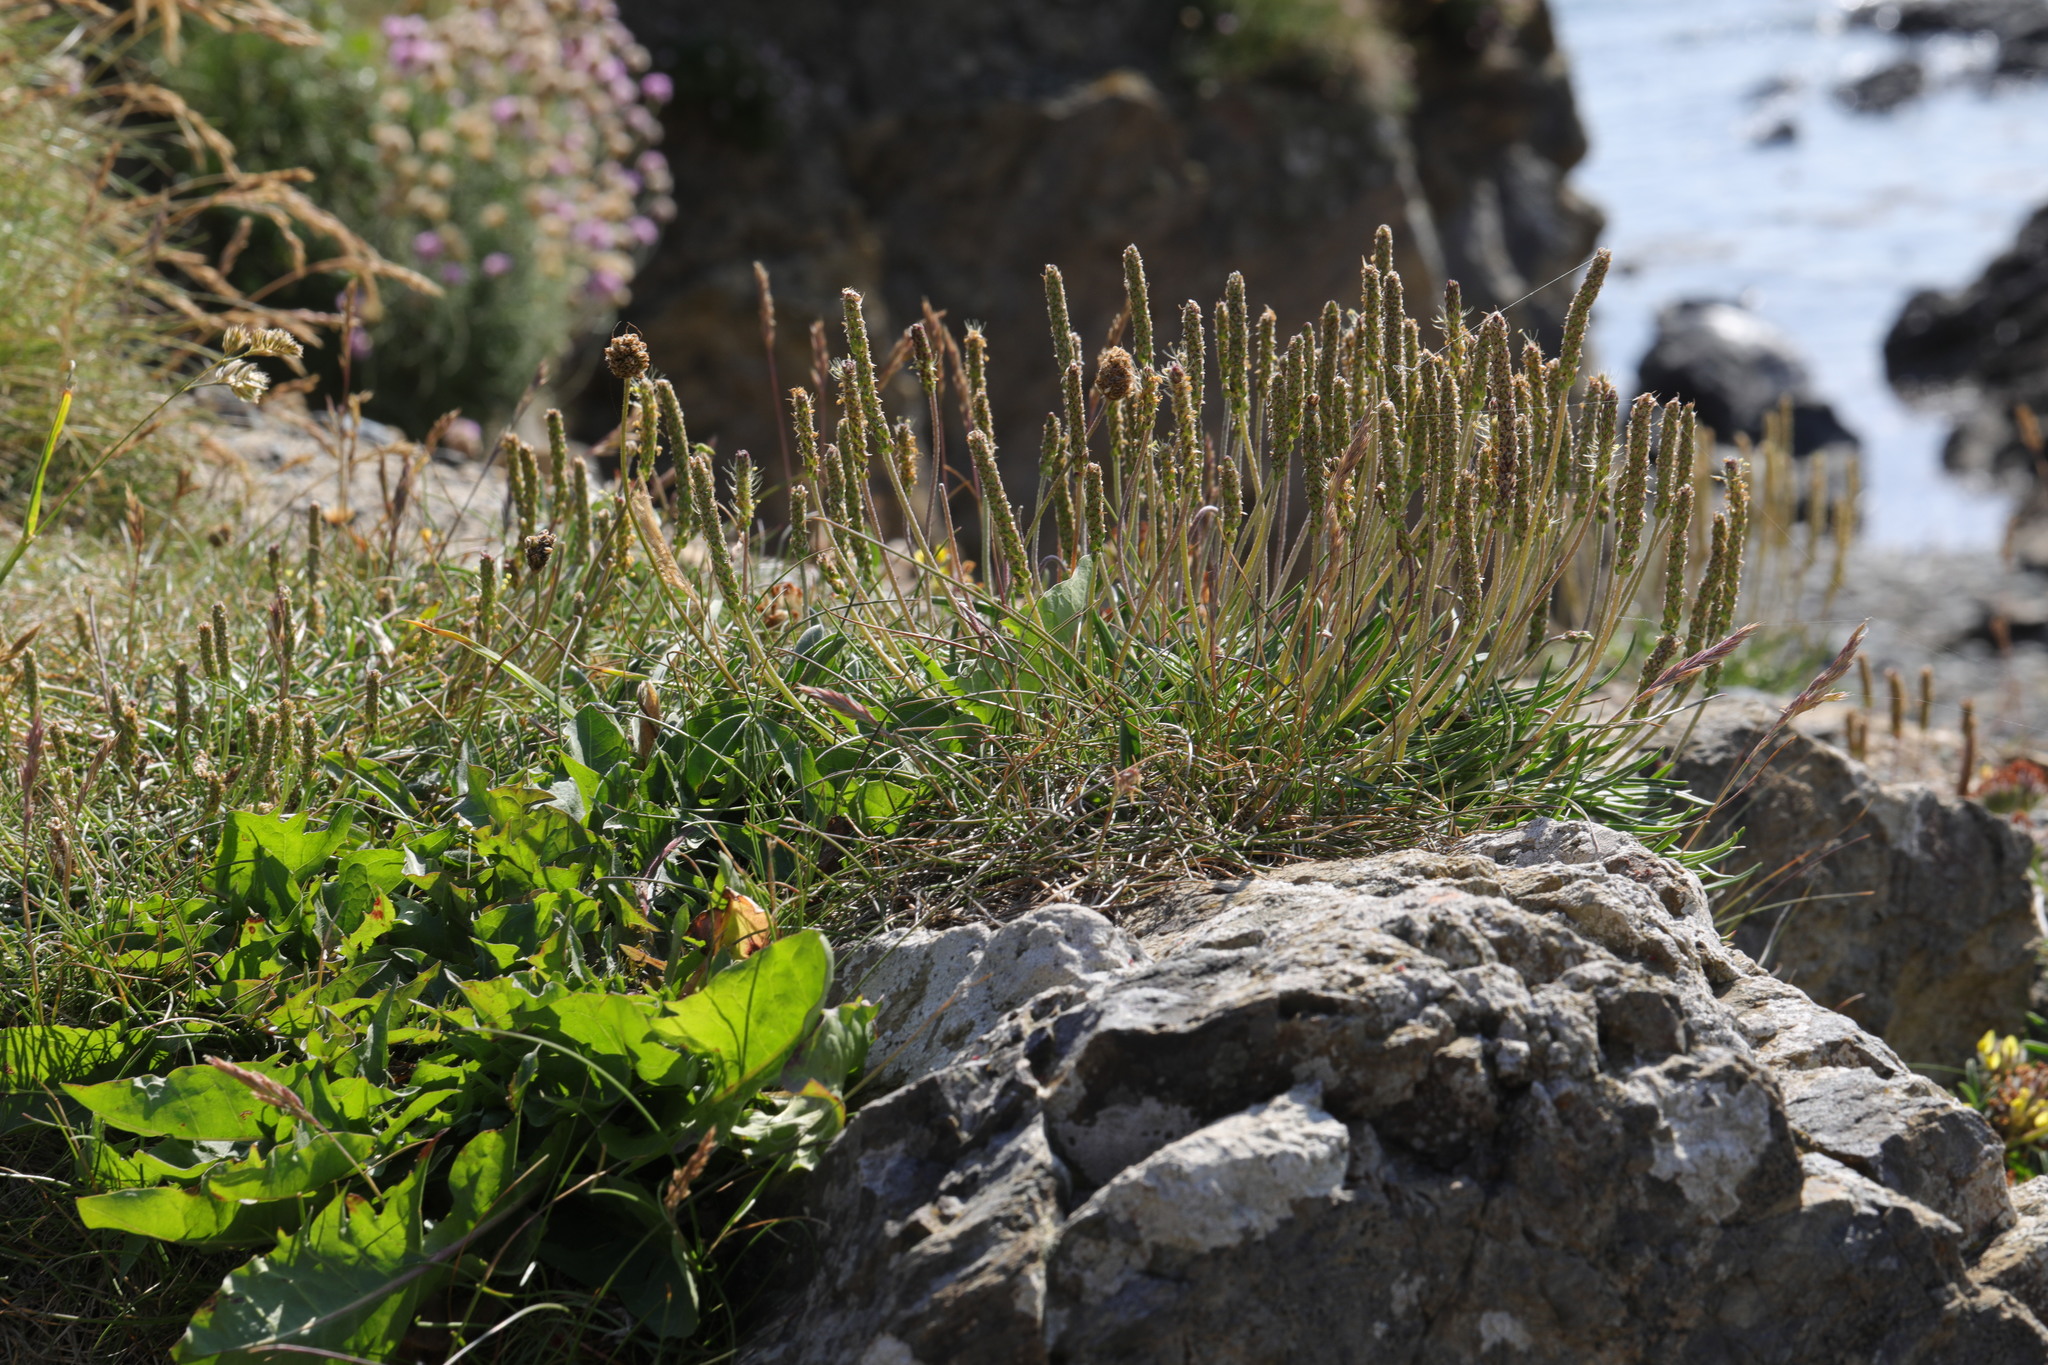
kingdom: Plantae
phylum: Tracheophyta
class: Magnoliopsida
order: Lamiales
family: Plantaginaceae
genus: Plantago
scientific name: Plantago maritima
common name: Sea plantain
